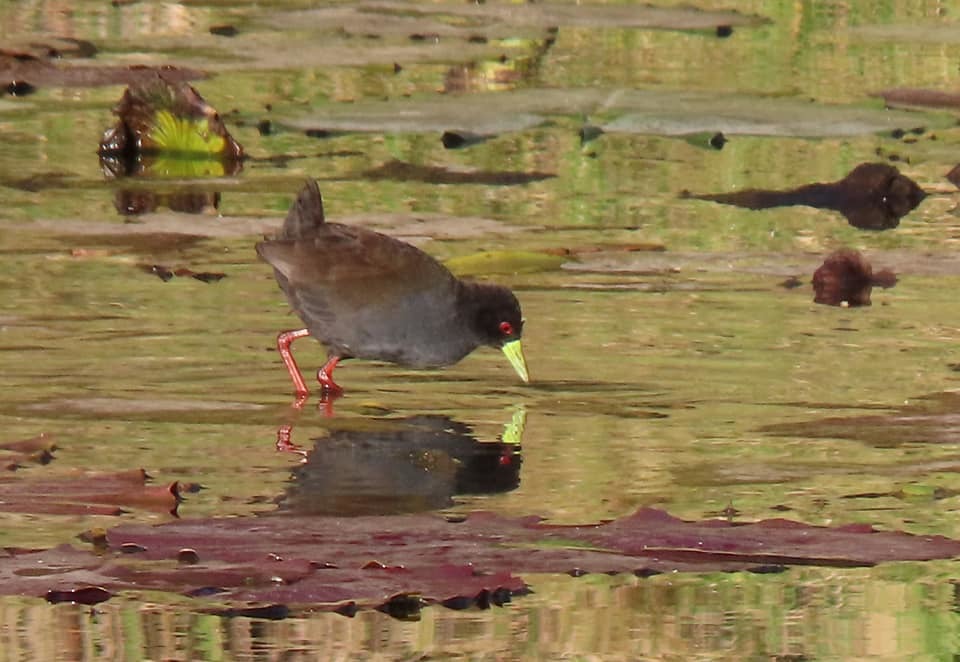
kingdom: Animalia
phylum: Chordata
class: Aves
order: Gruiformes
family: Rallidae
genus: Amaurornis
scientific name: Amaurornis flavirostra
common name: Black crake
